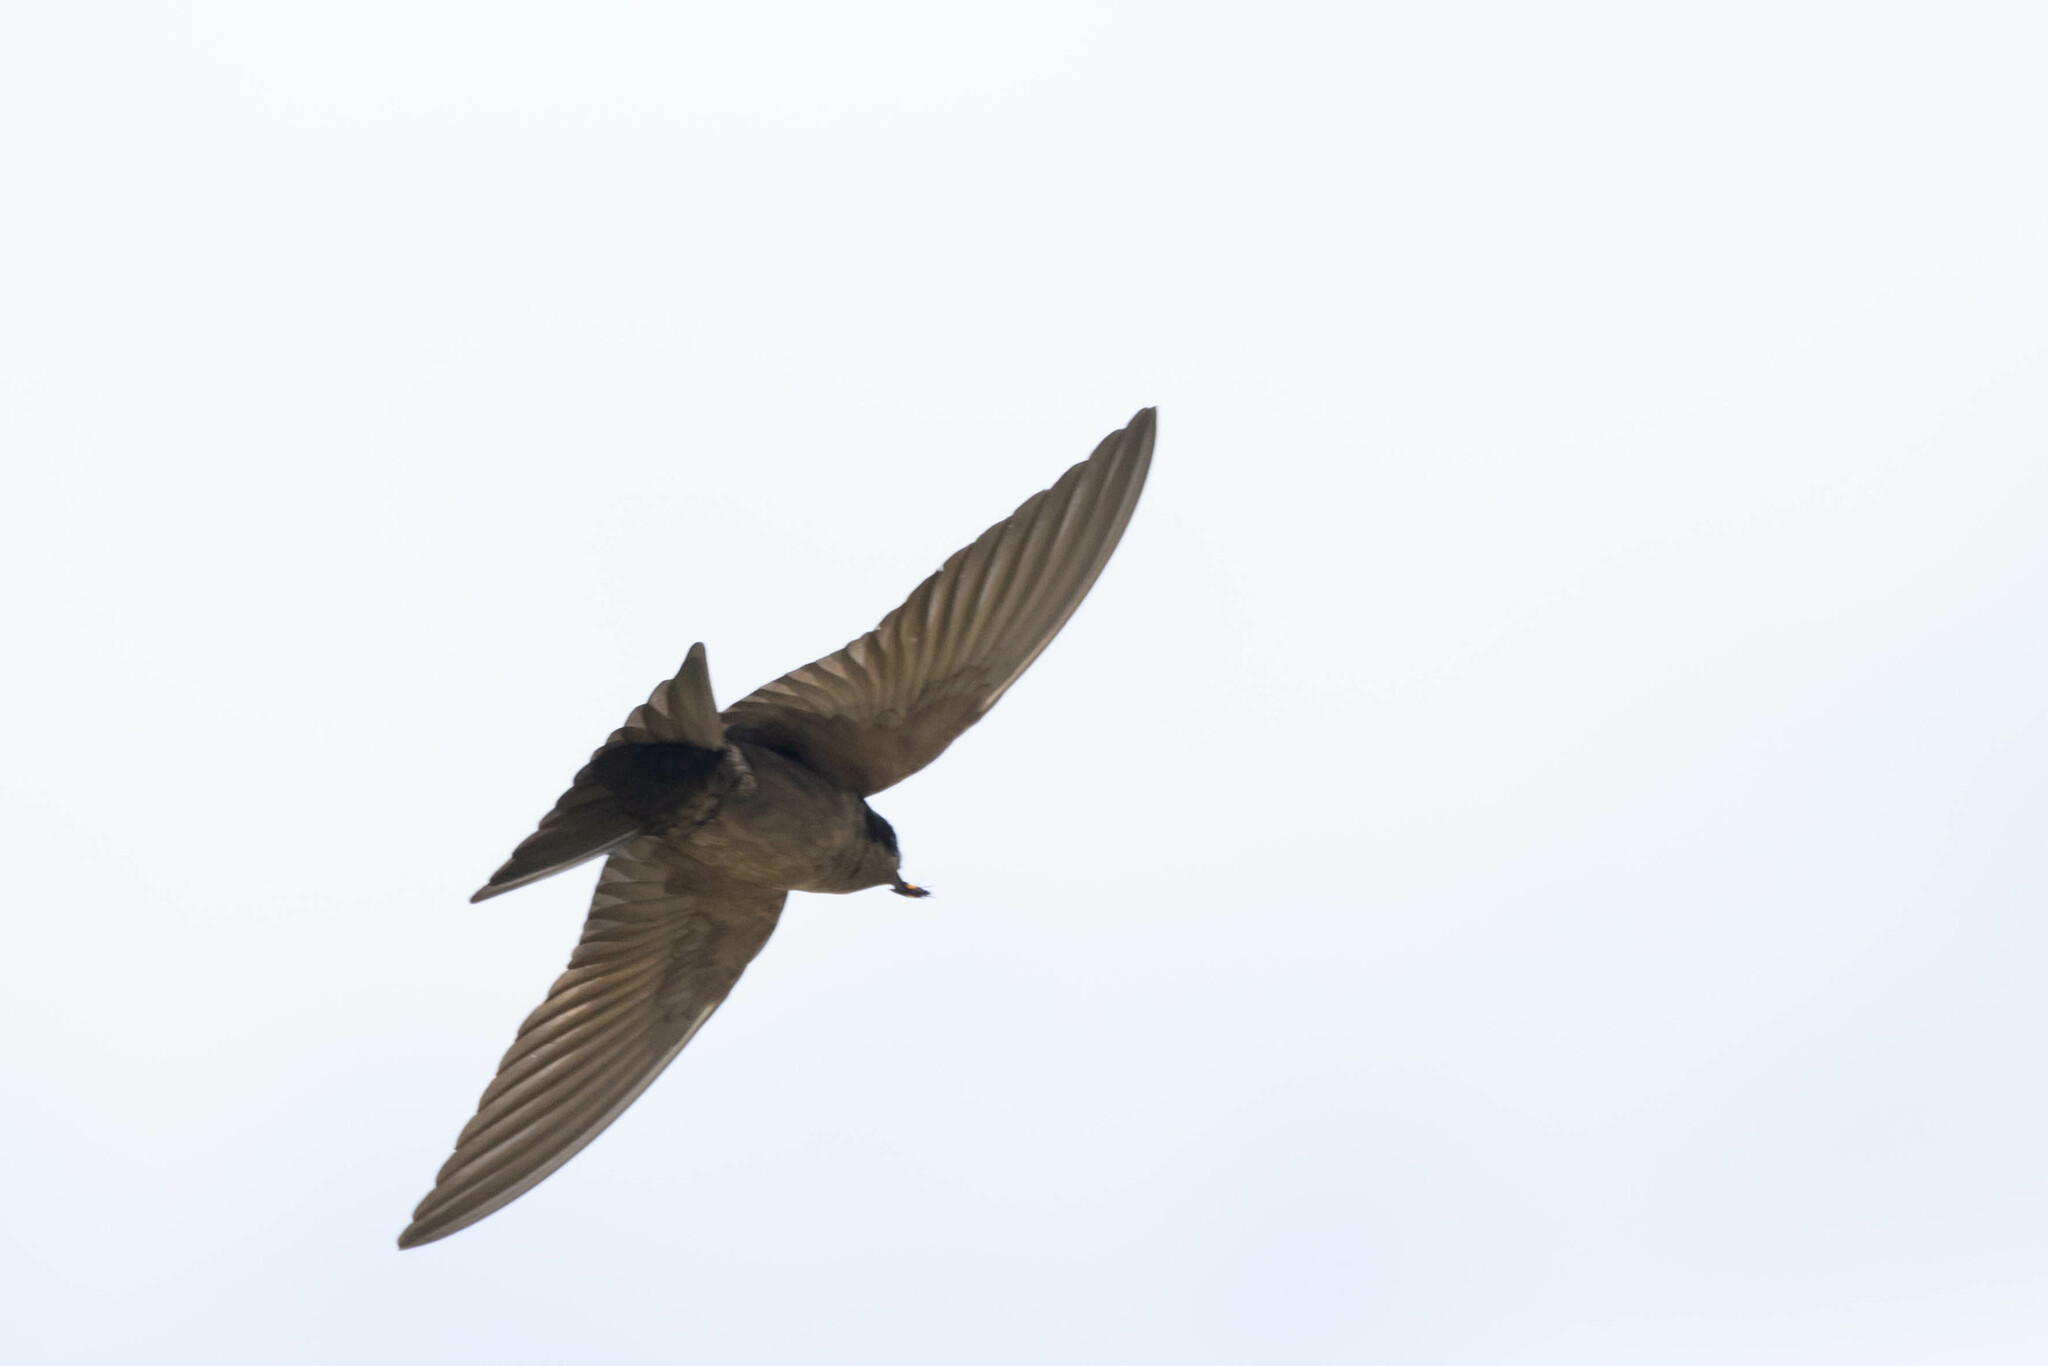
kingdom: Animalia
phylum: Chordata
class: Aves
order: Passeriformes
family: Hirundinidae
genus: Notiochelidon
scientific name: Notiochelidon murina
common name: Brown-bellied swallow
